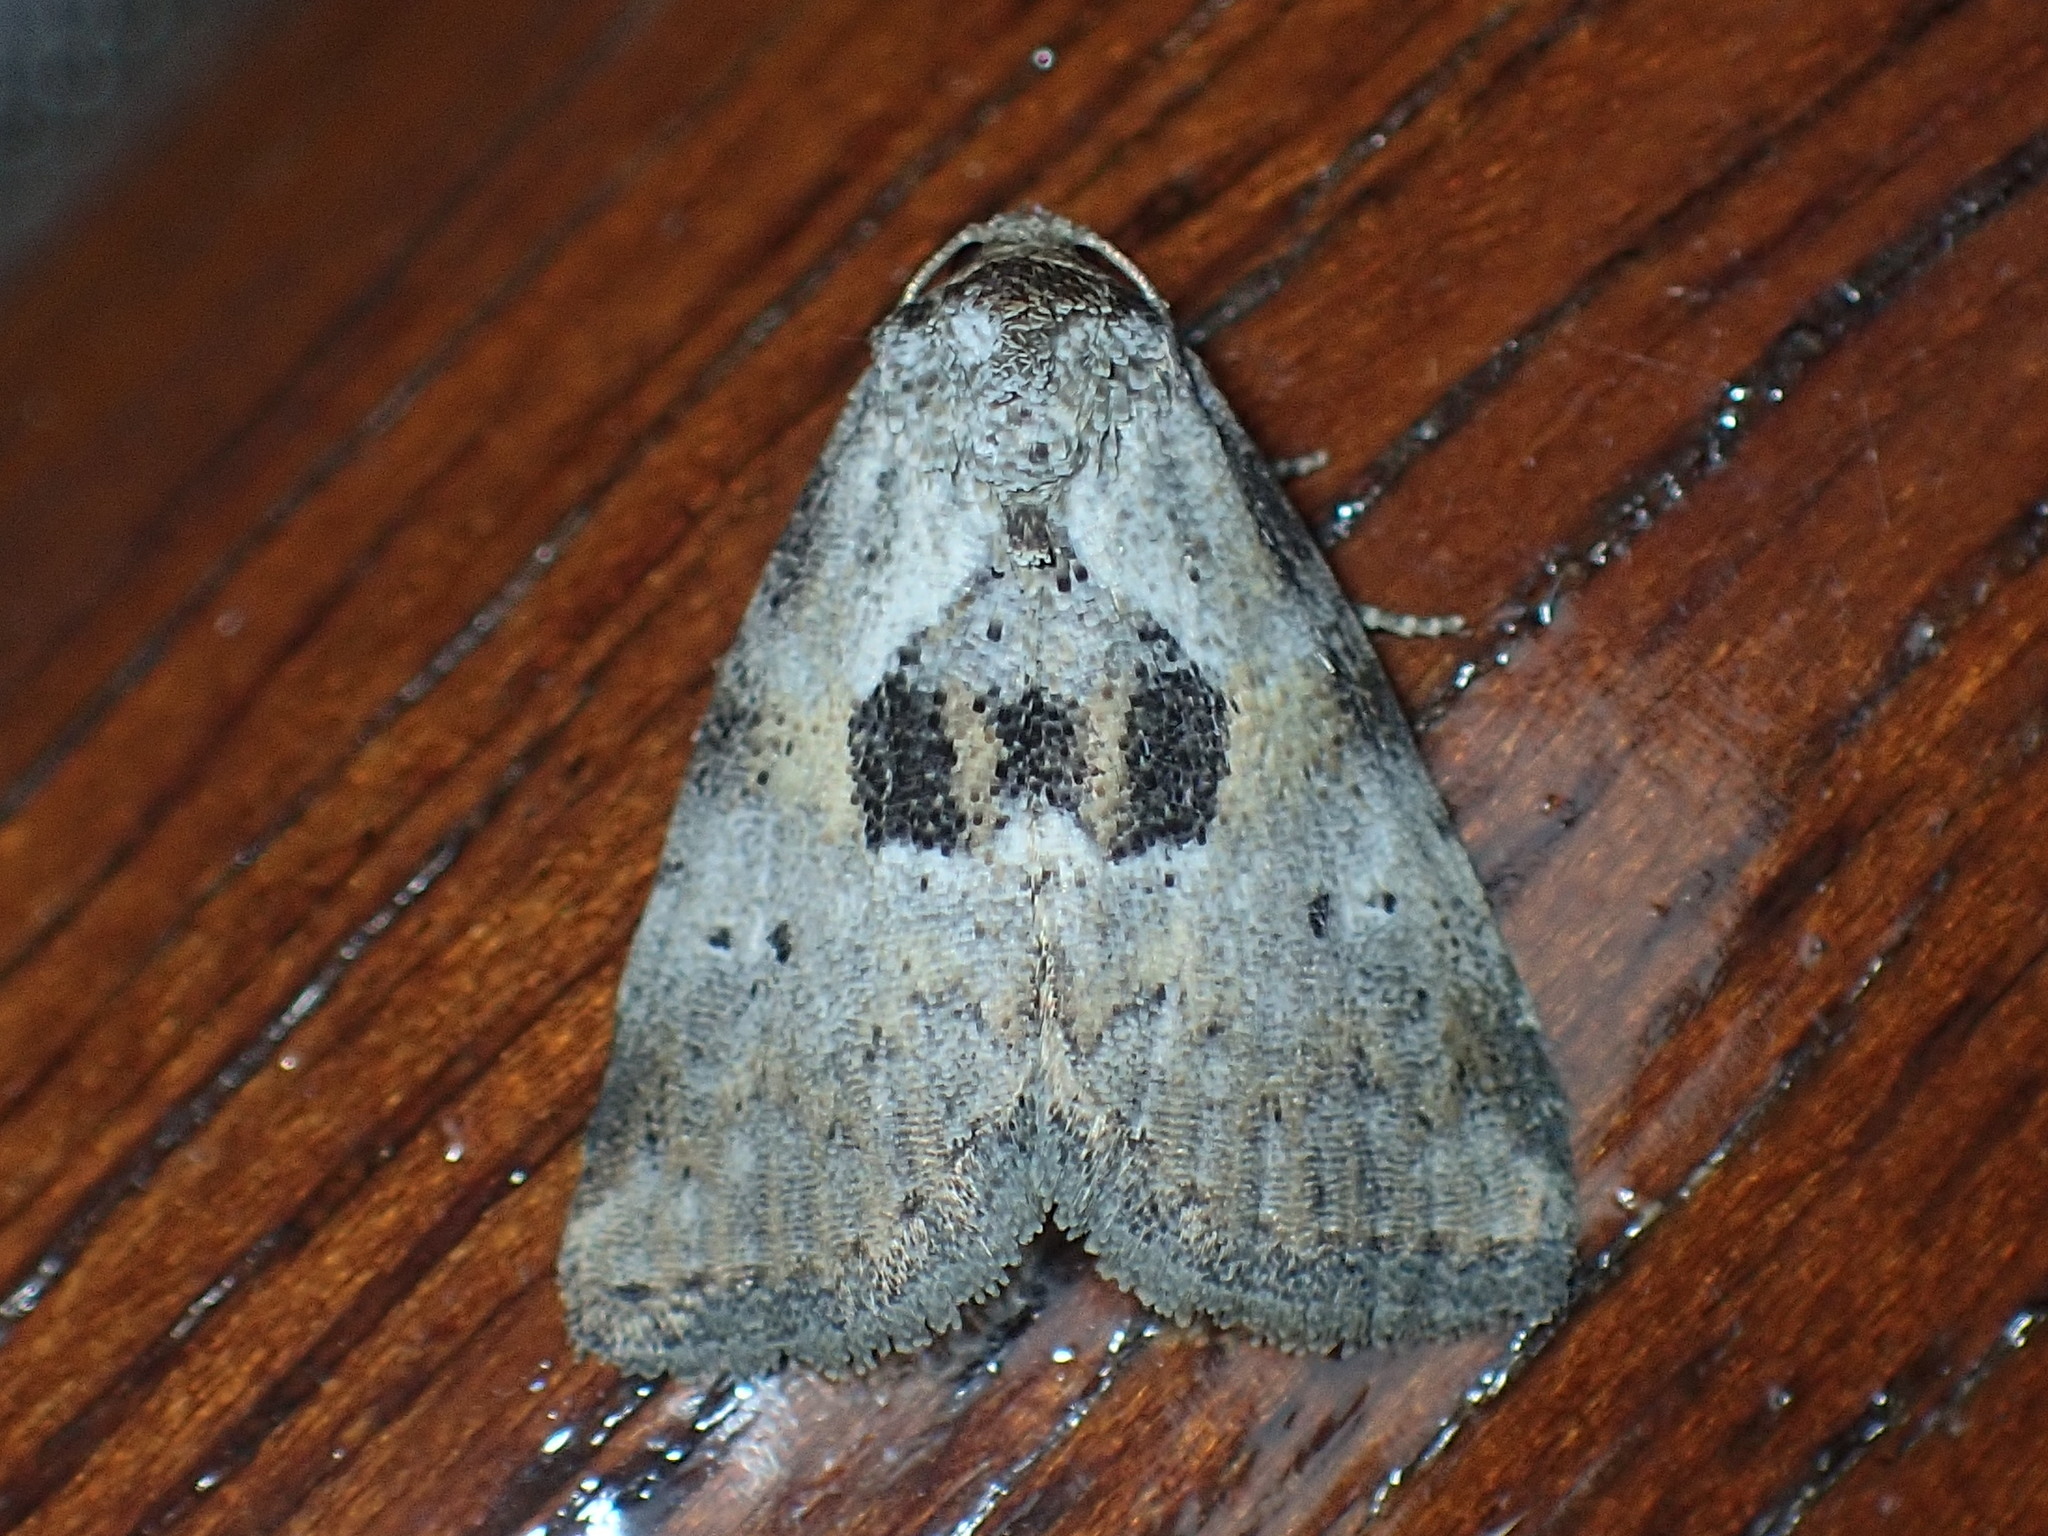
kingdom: Animalia
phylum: Arthropoda
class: Insecta
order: Lepidoptera
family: Erebidae
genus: Hyperstrotia
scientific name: Hyperstrotia secta
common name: Black-patched graylet
